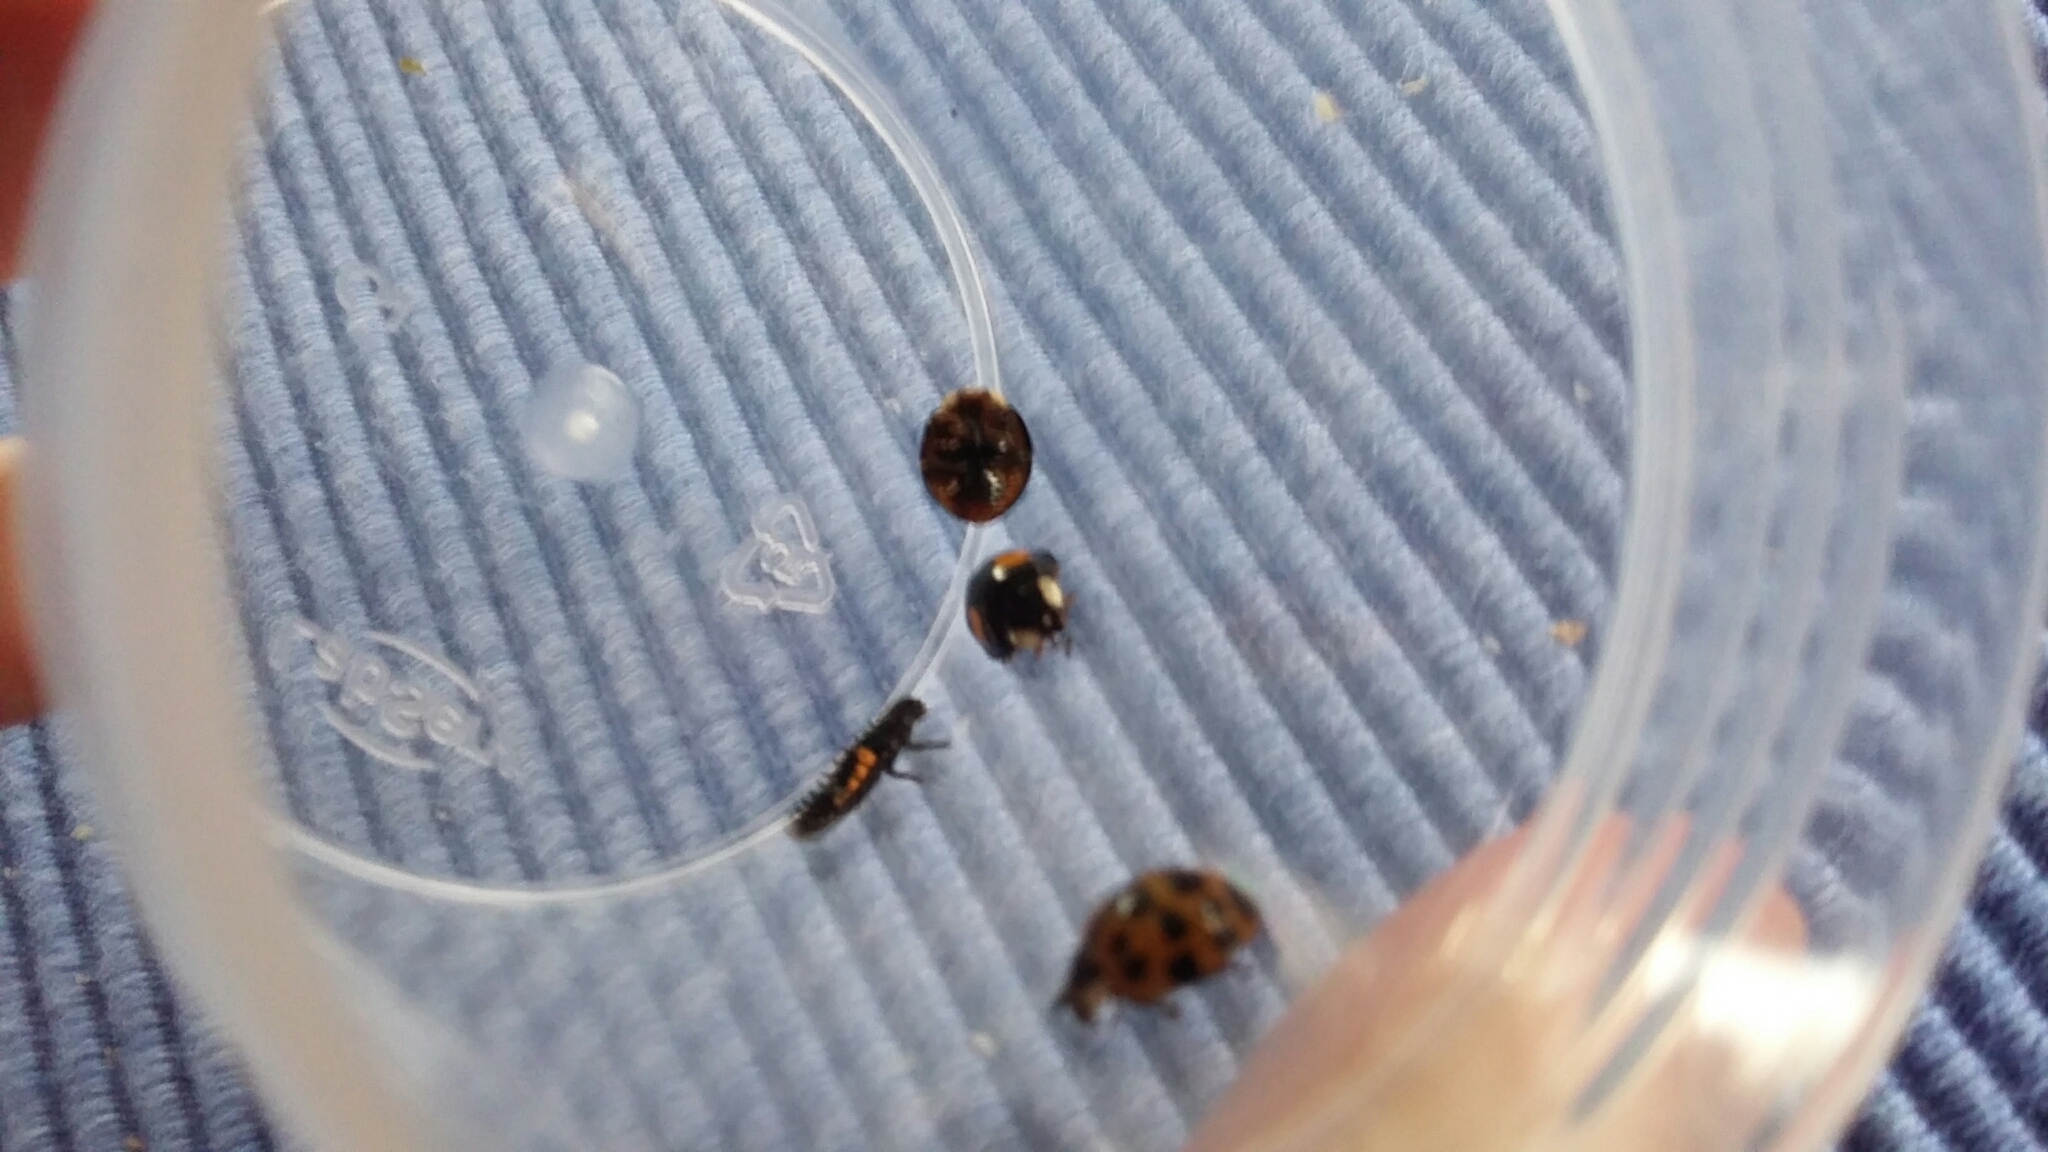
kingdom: Animalia
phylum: Arthropoda
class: Insecta
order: Coleoptera
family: Coccinellidae
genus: Harmonia
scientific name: Harmonia axyridis
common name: Harlequin ladybird
